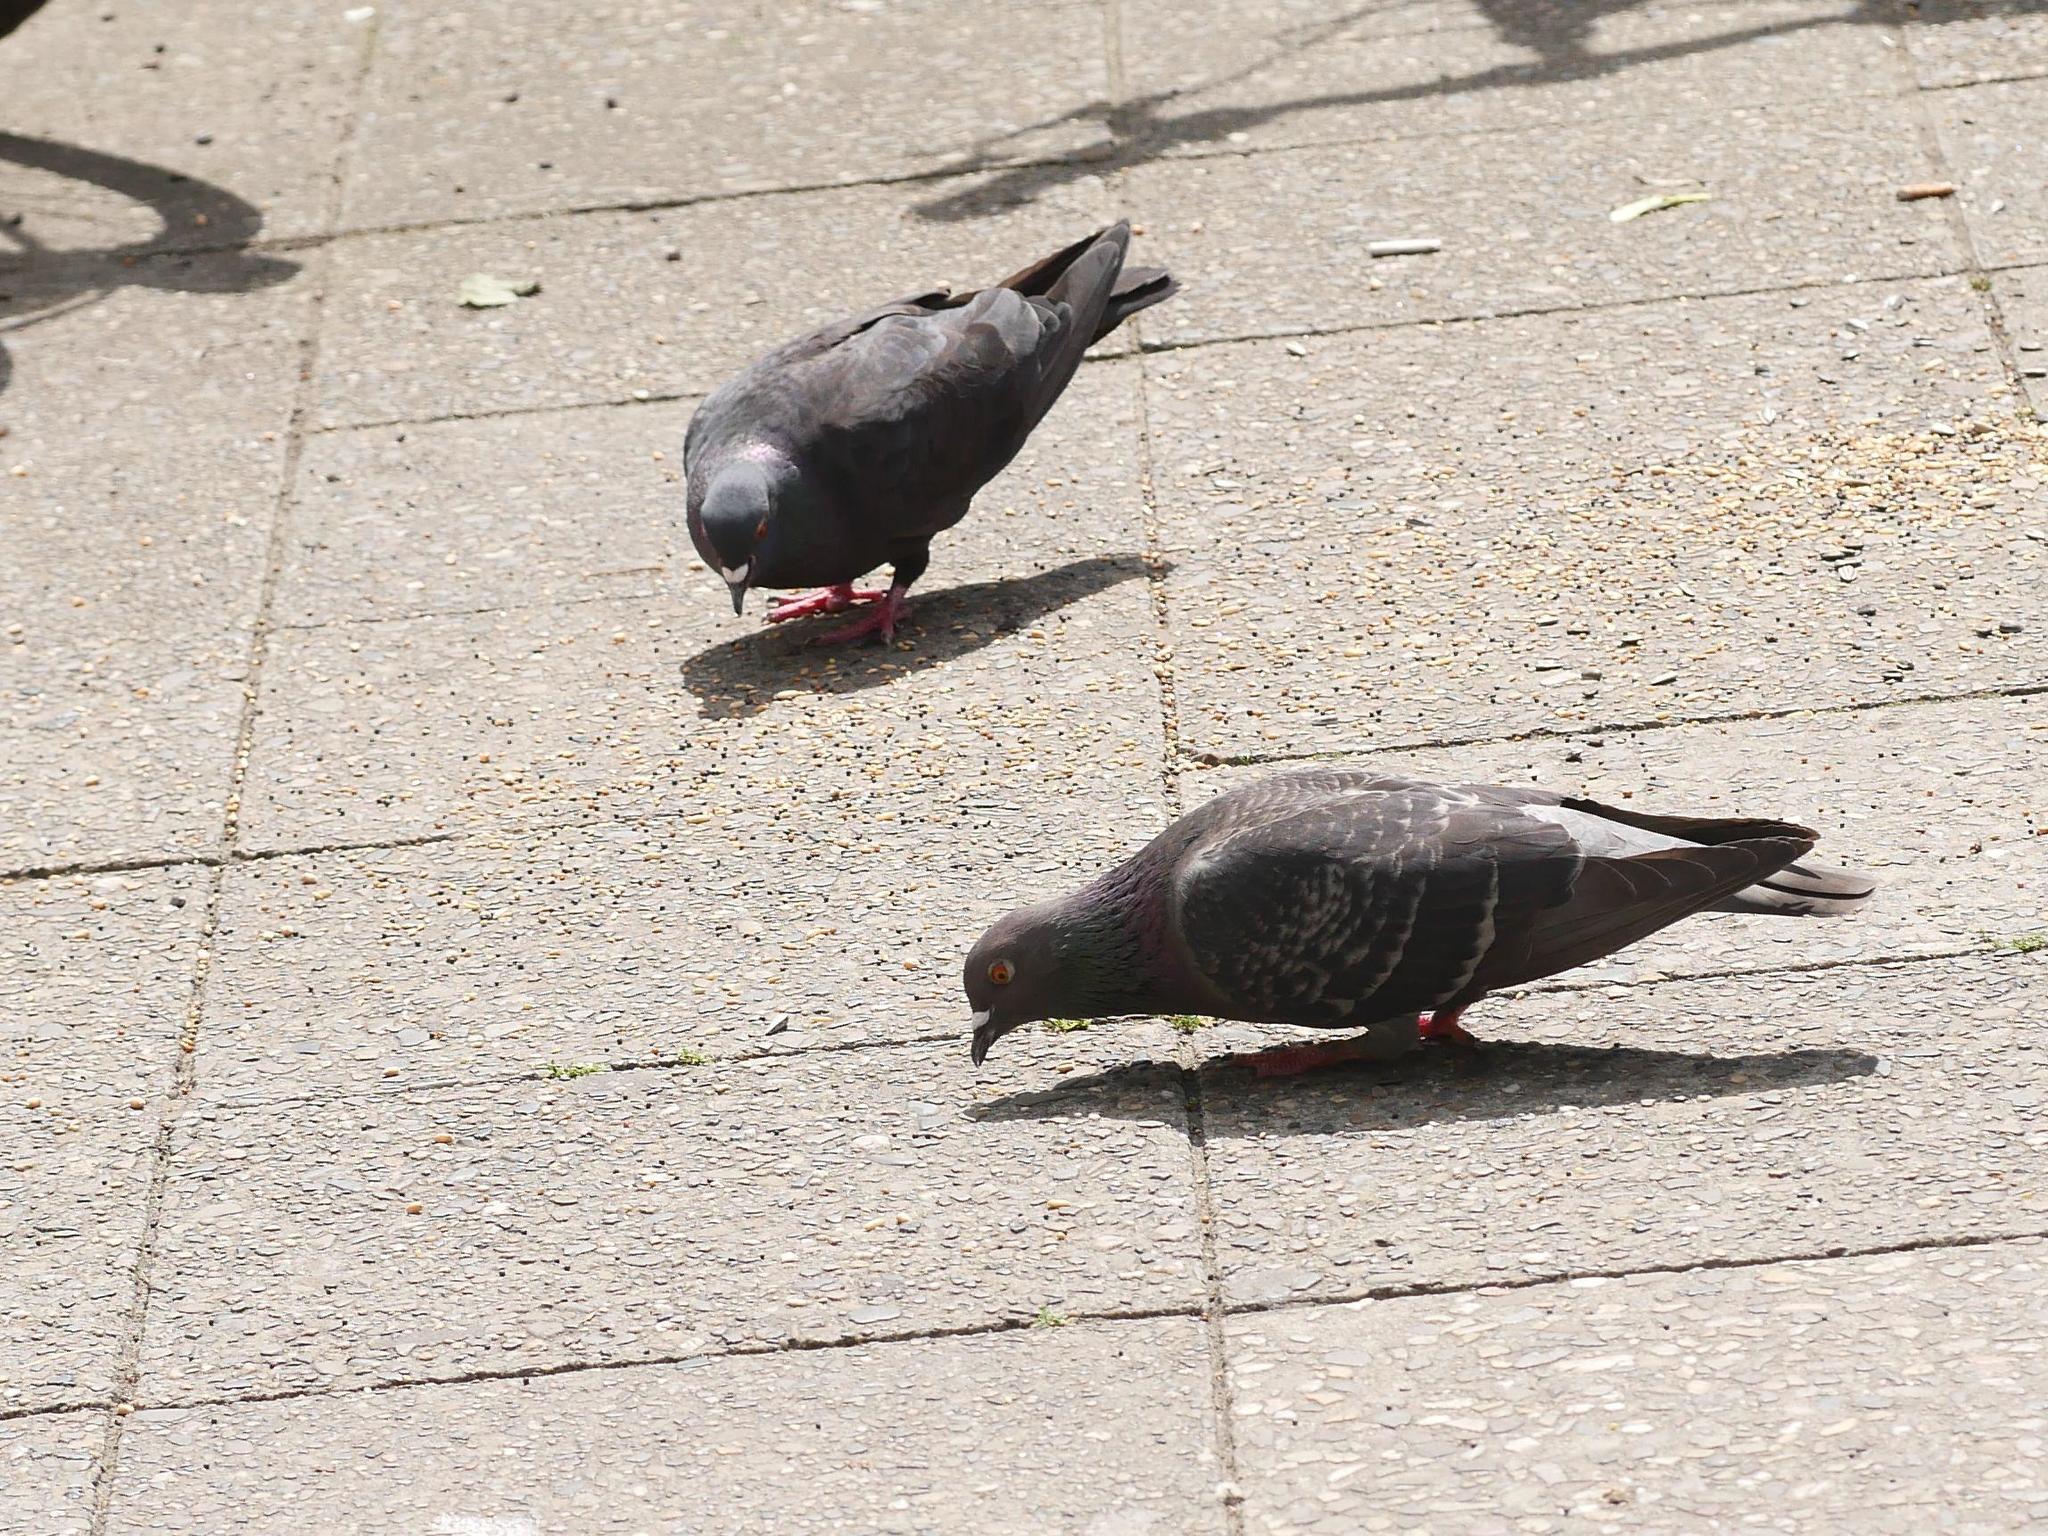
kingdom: Animalia
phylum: Chordata
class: Aves
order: Columbiformes
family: Columbidae
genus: Columba
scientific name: Columba livia
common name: Rock pigeon
